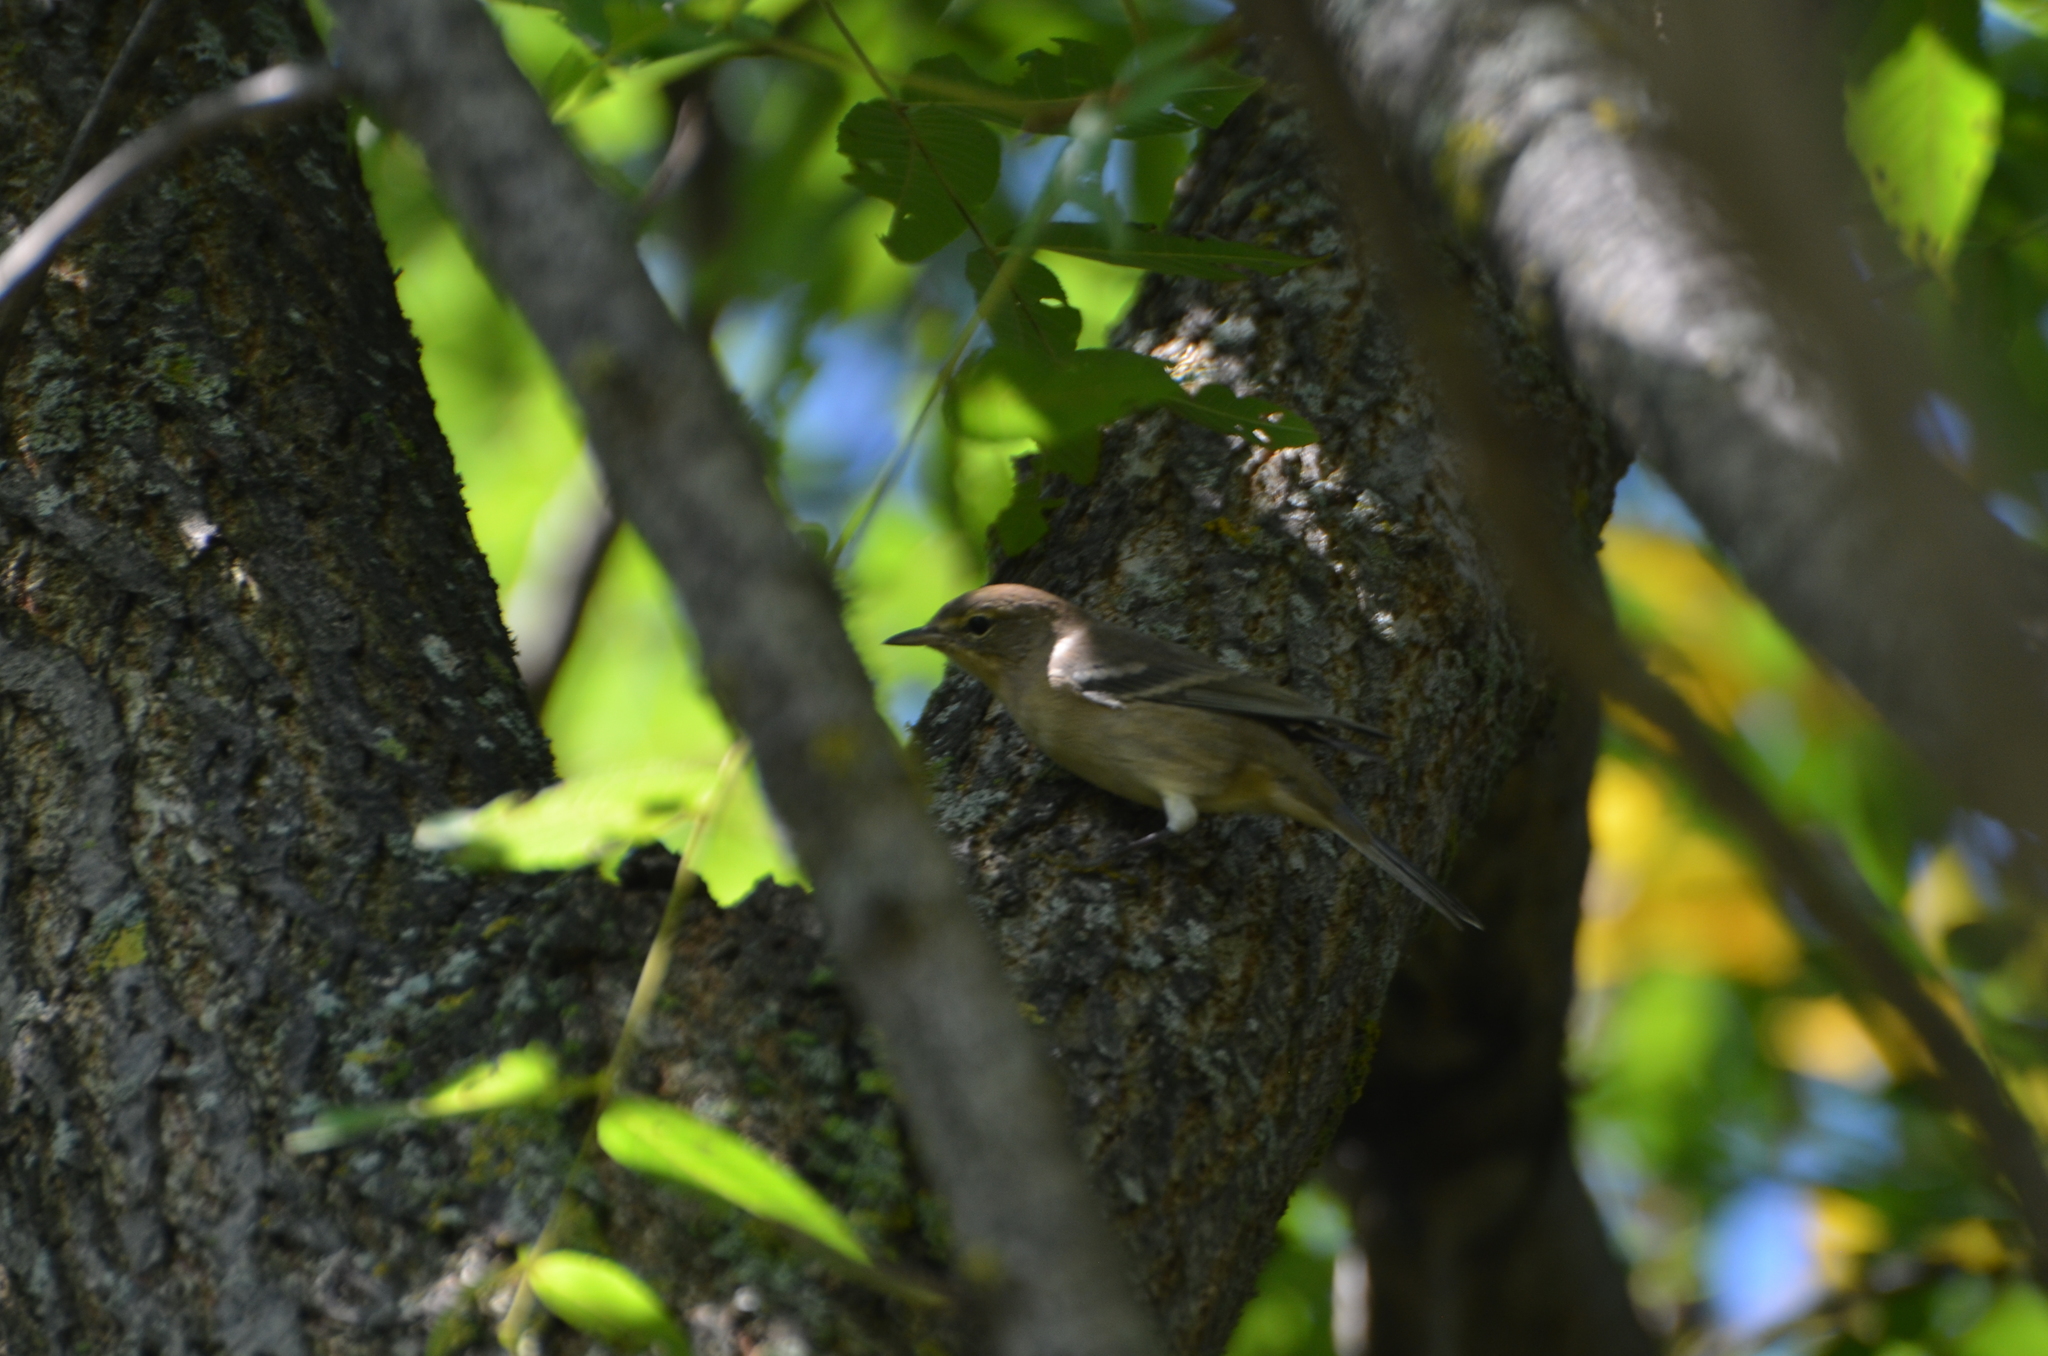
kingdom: Animalia
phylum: Chordata
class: Aves
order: Passeriformes
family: Parulidae
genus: Setophaga
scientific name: Setophaga pinus
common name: Pine warbler
